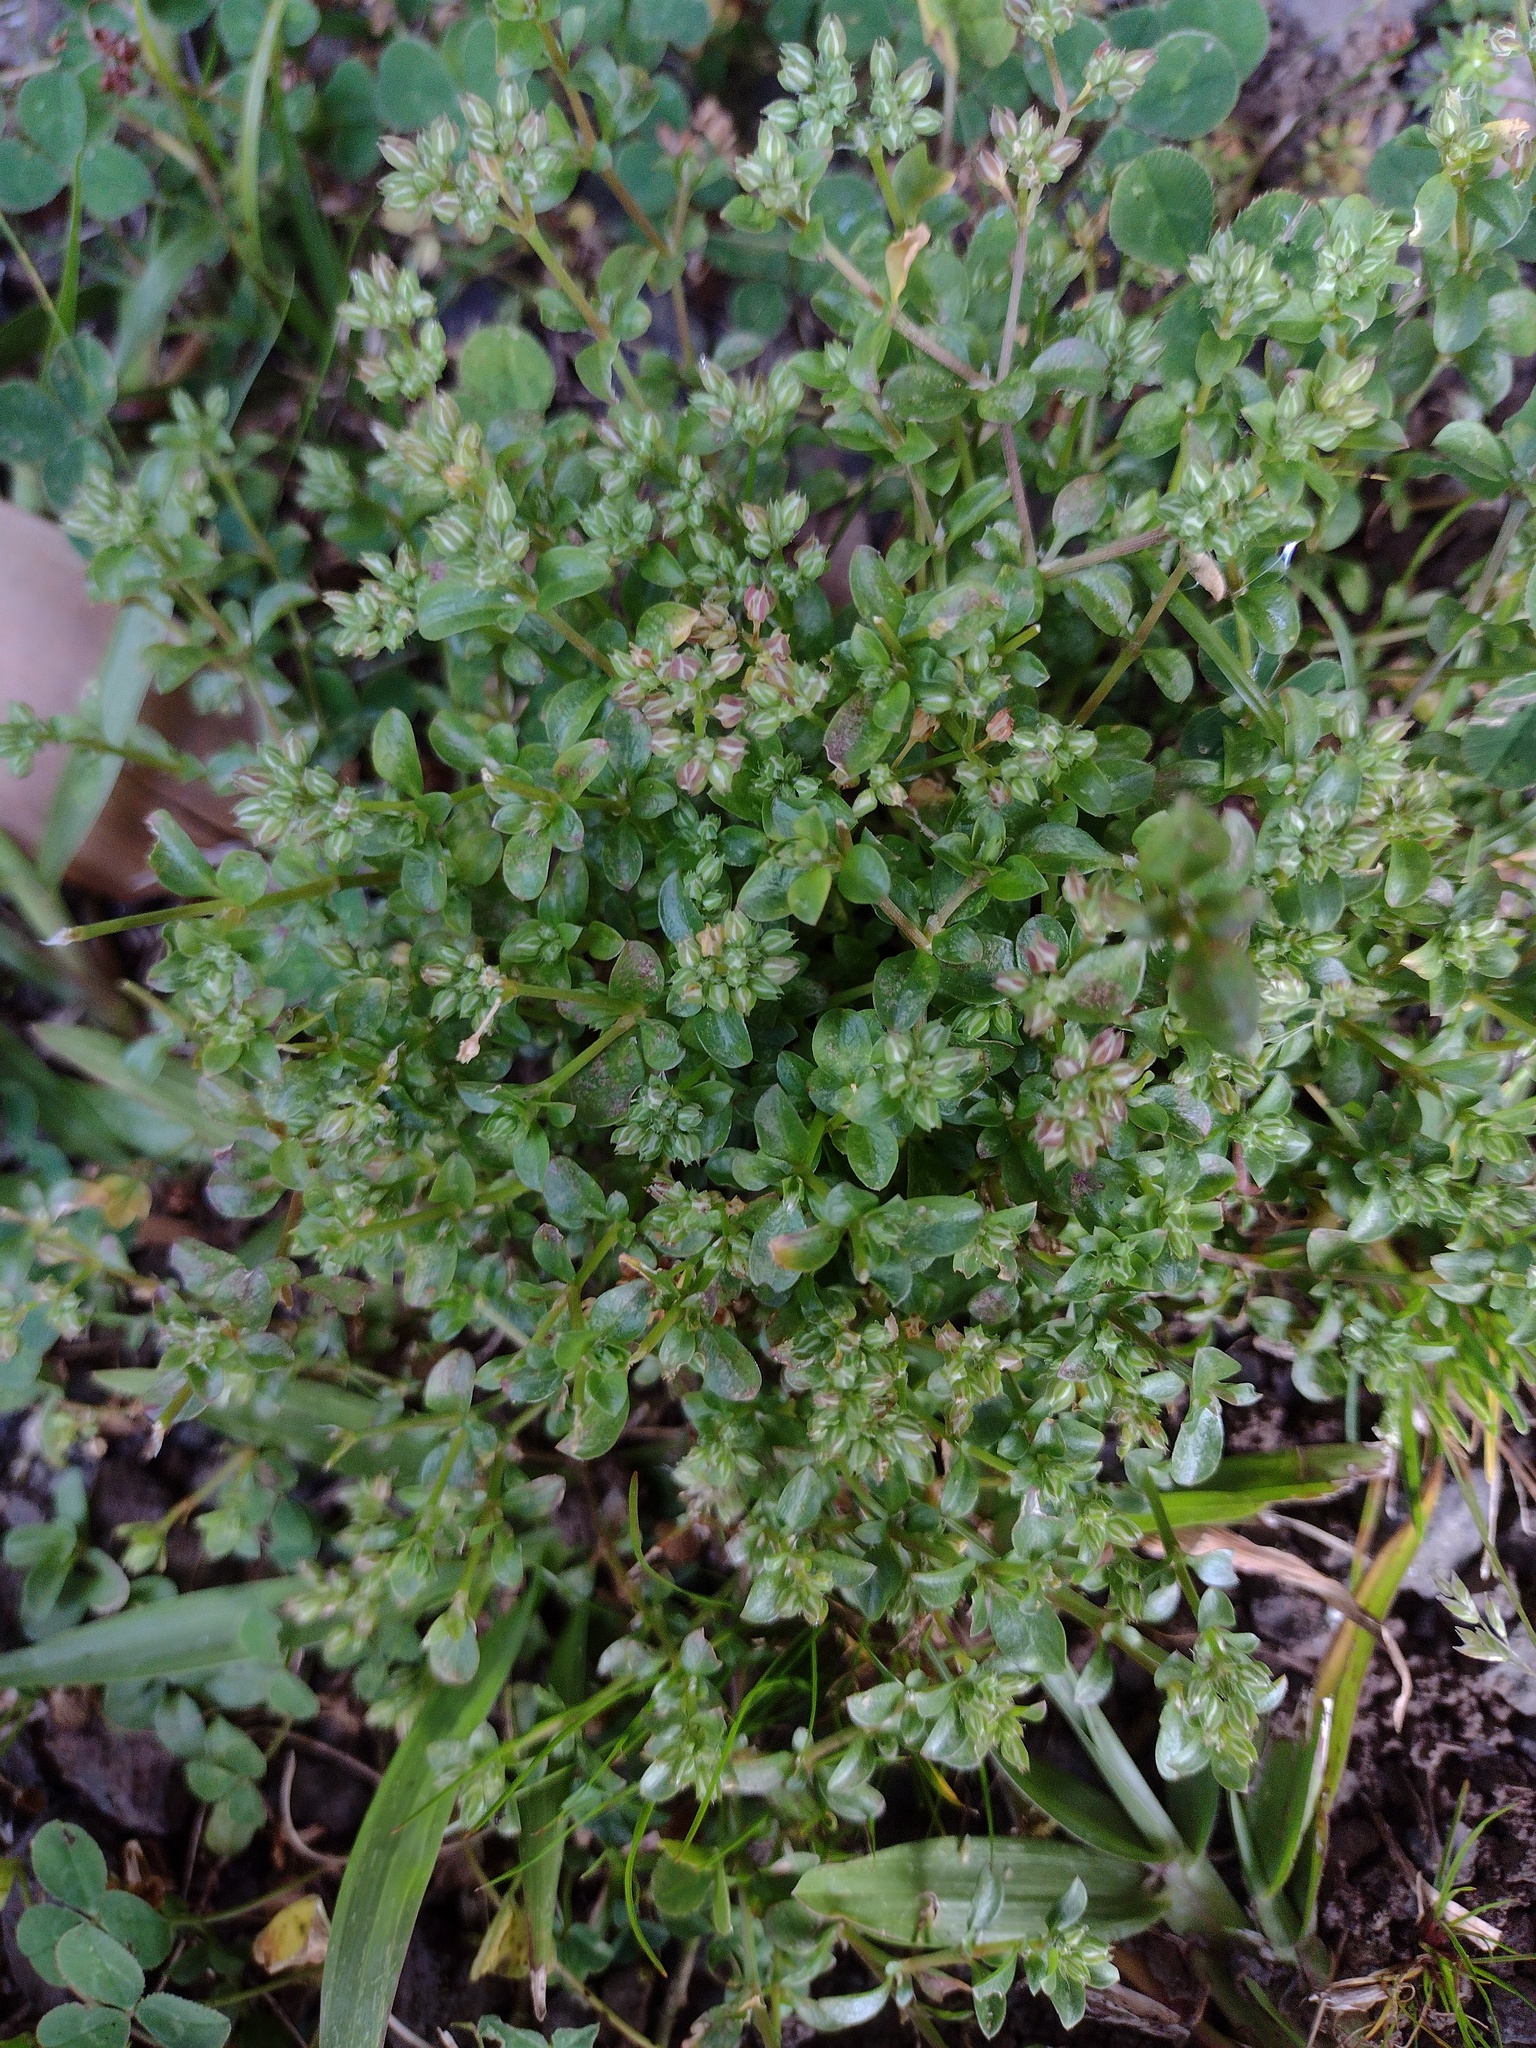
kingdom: Plantae
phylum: Tracheophyta
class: Magnoliopsida
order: Caryophyllales
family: Caryophyllaceae
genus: Polycarpon
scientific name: Polycarpon tetraphyllum
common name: Four-leaved all-seed
